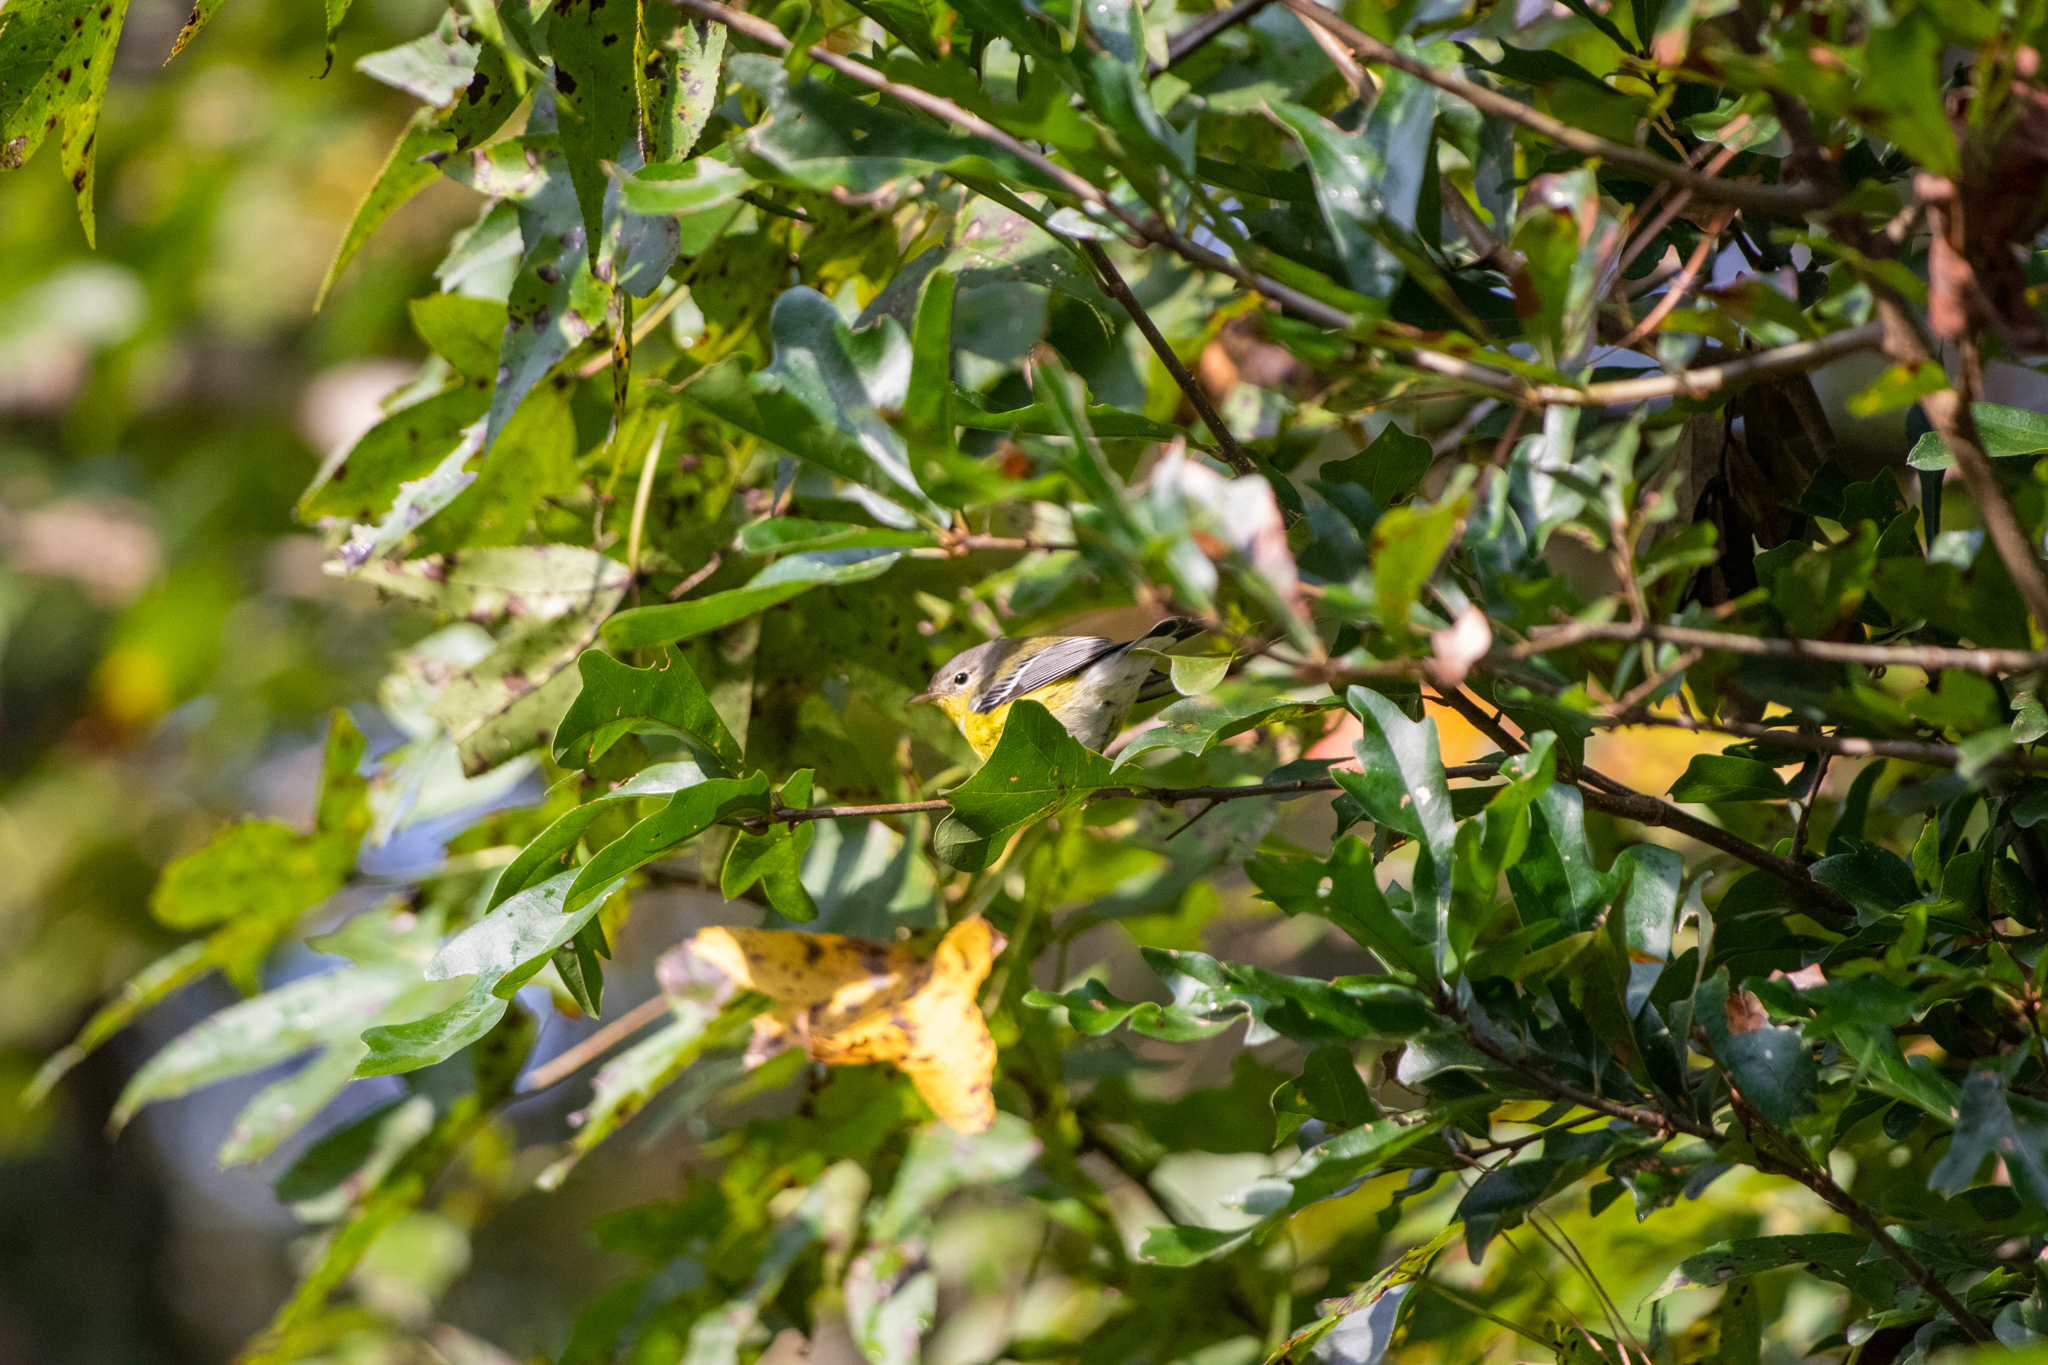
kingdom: Animalia
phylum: Chordata
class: Aves
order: Passeriformes
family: Parulidae
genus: Setophaga
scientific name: Setophaga magnolia
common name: Magnolia warbler
